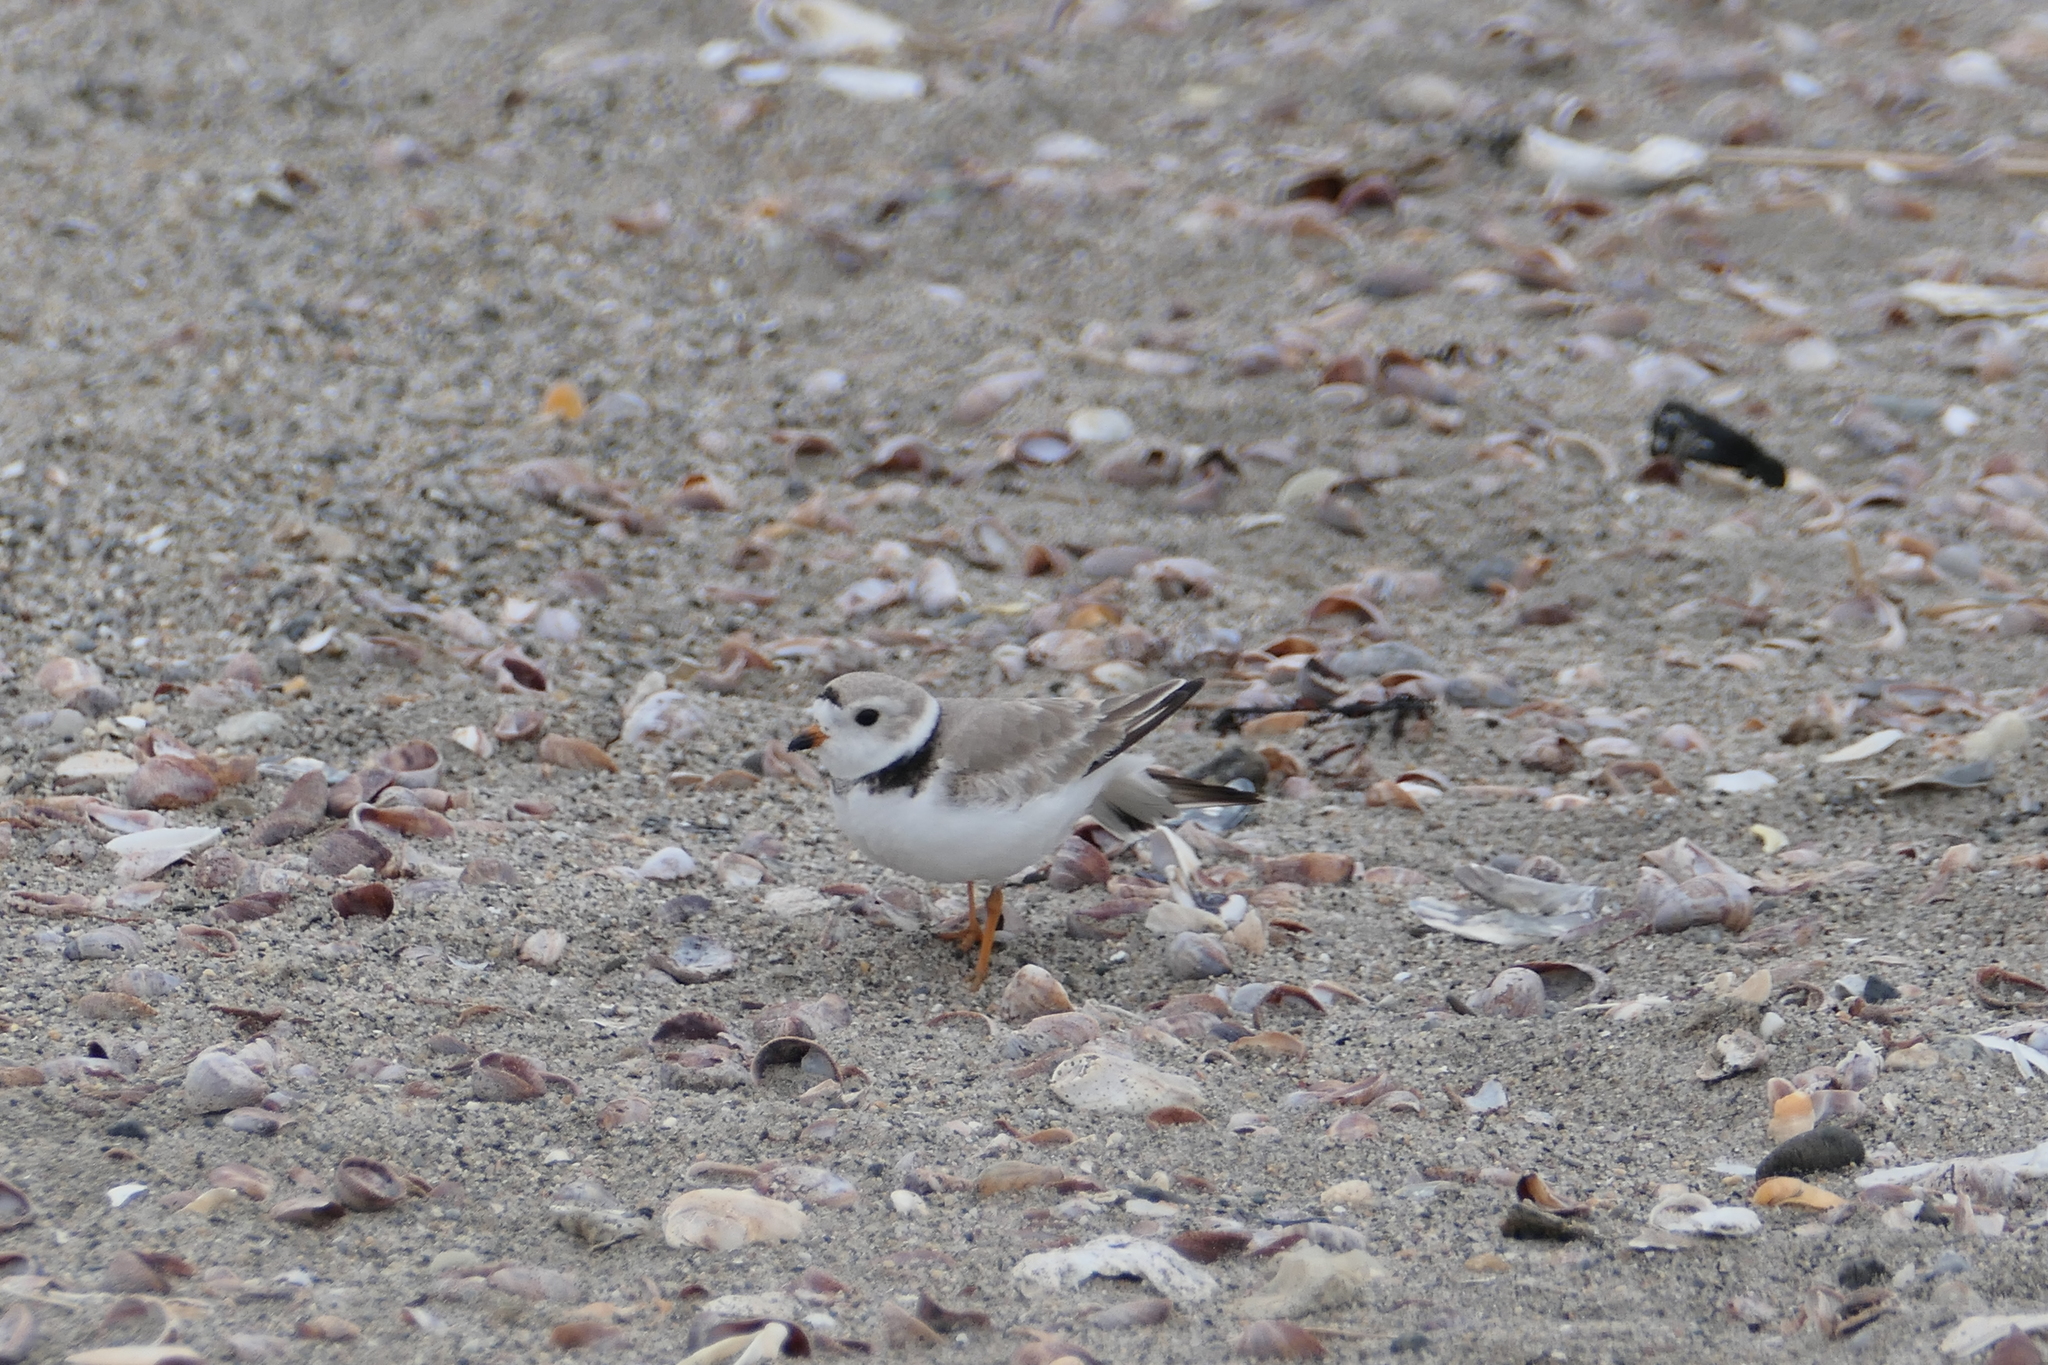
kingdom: Animalia
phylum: Chordata
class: Aves
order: Charadriiformes
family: Charadriidae
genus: Charadrius
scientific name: Charadrius melodus
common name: Piping plover
